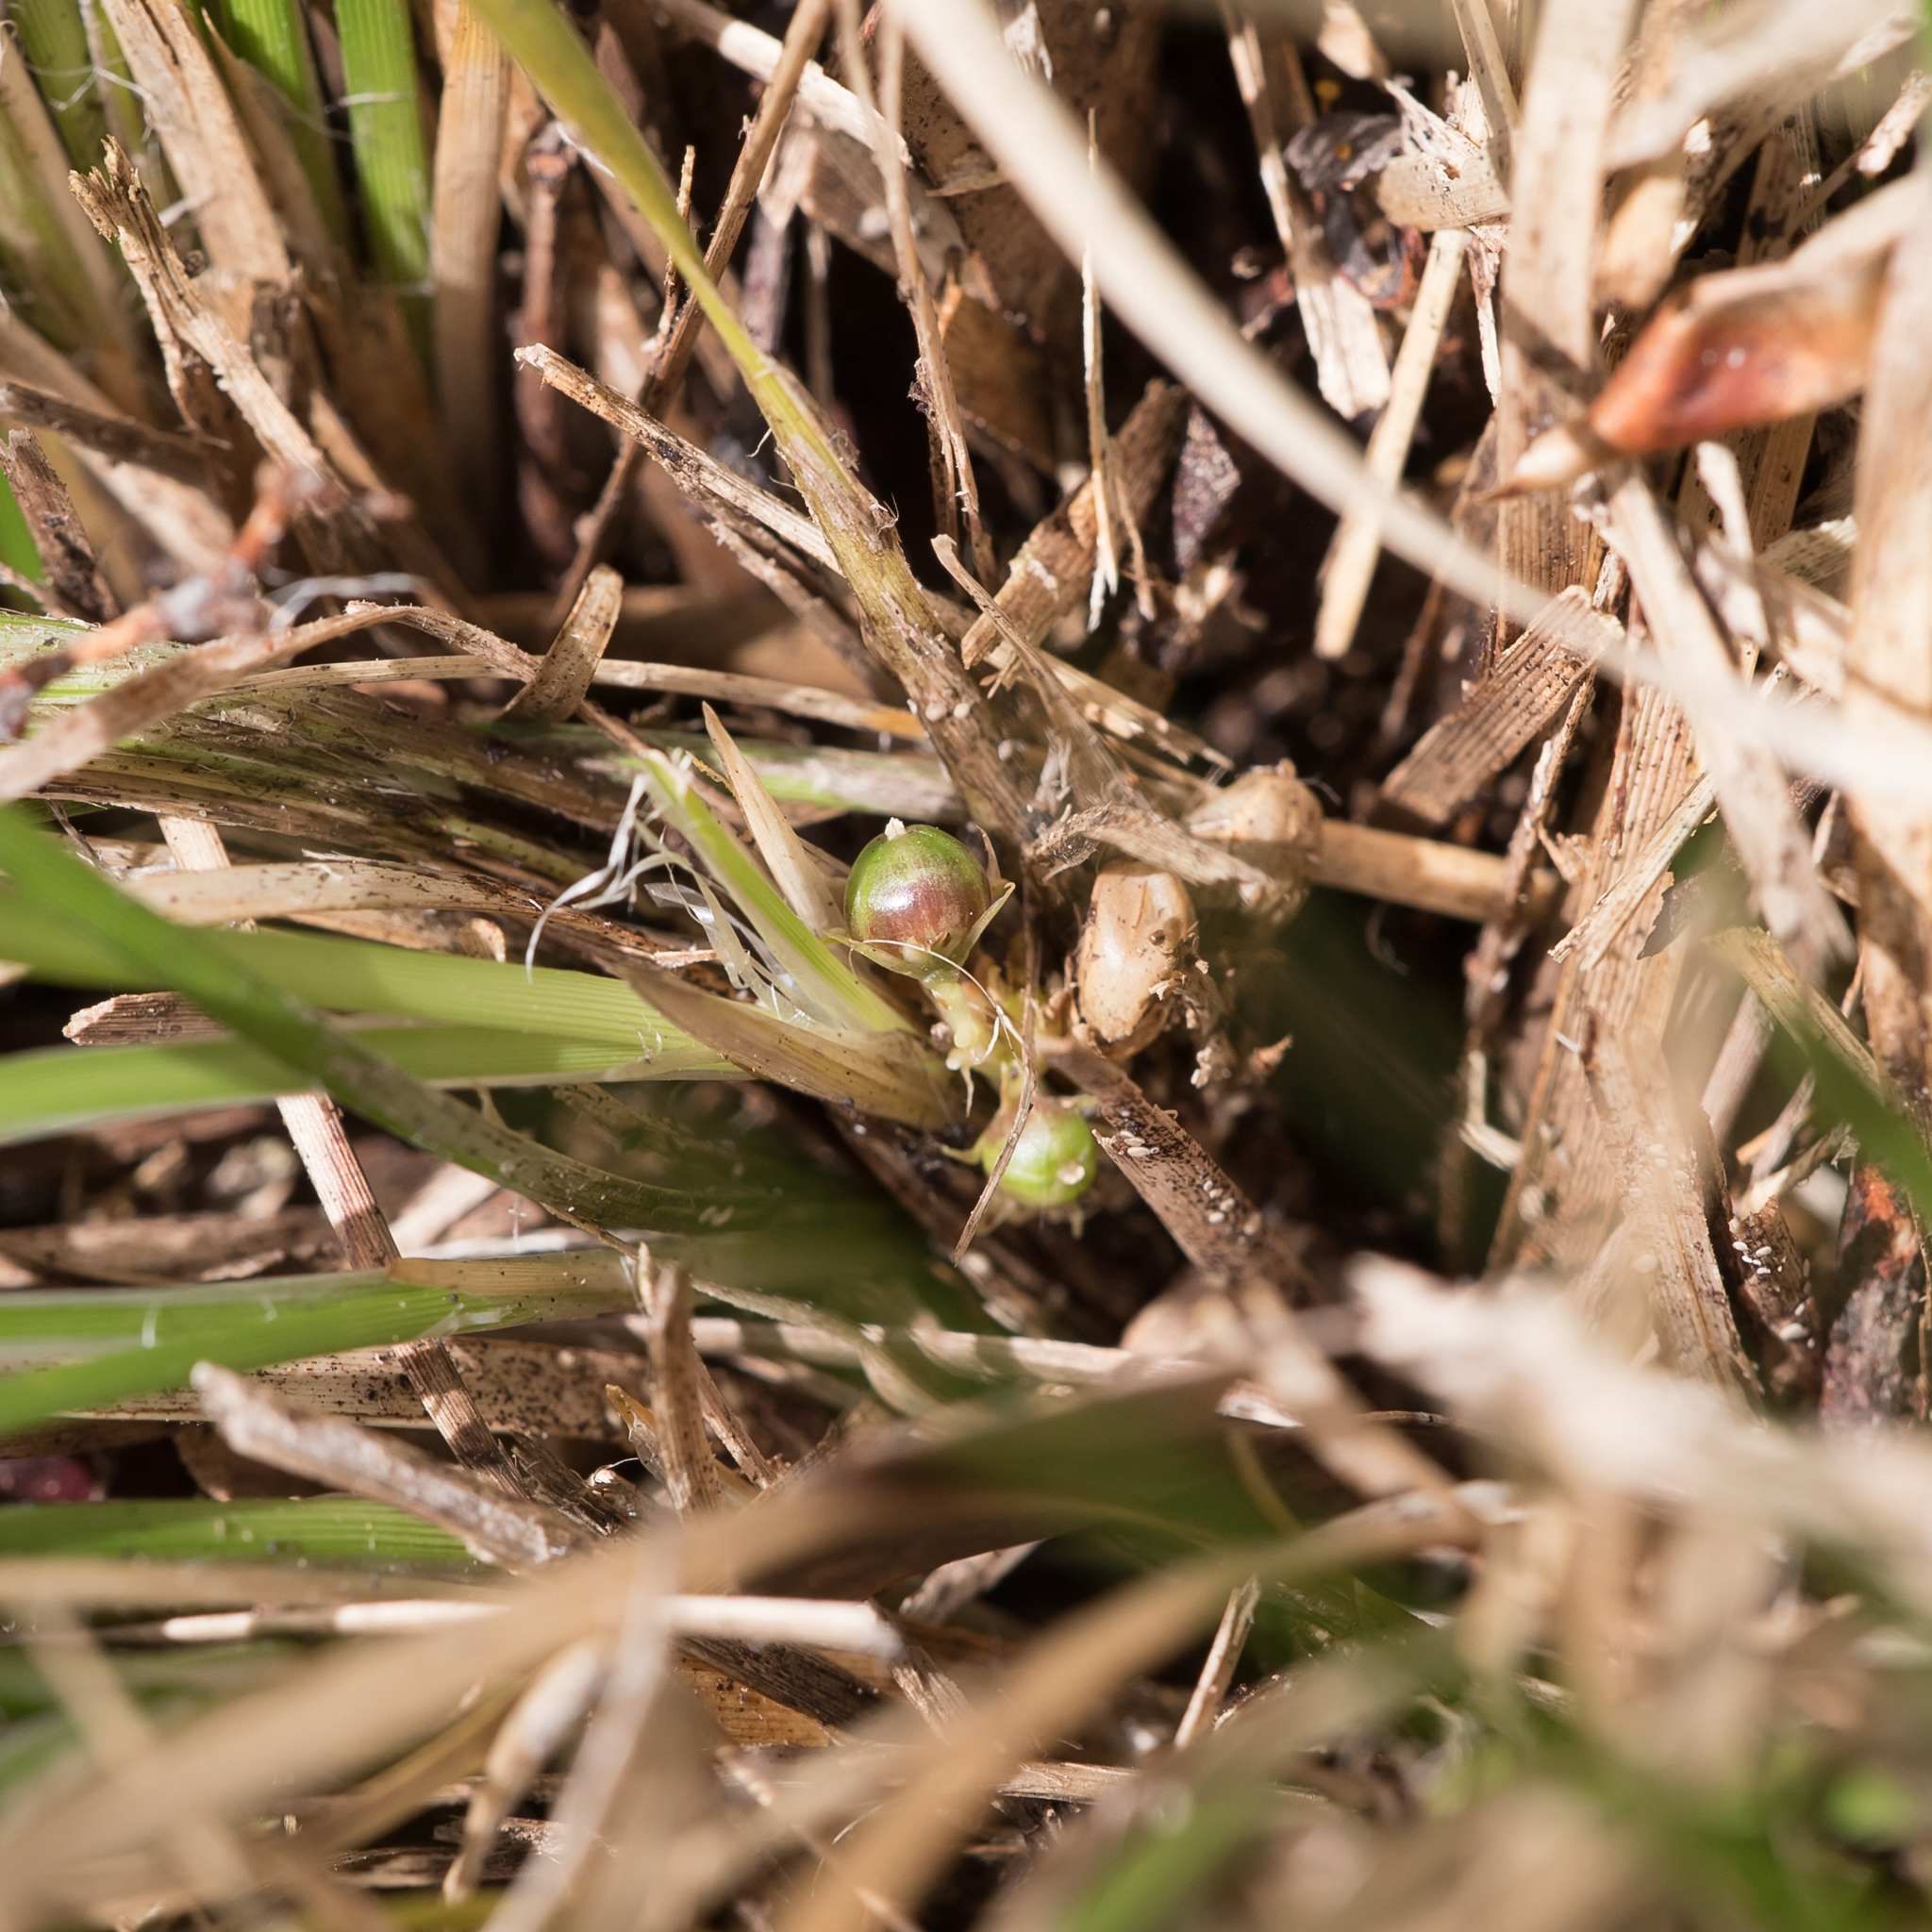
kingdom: Plantae
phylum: Tracheophyta
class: Liliopsida
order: Asparagales
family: Asparagaceae
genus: Lomandra
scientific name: Lomandra densiflora
